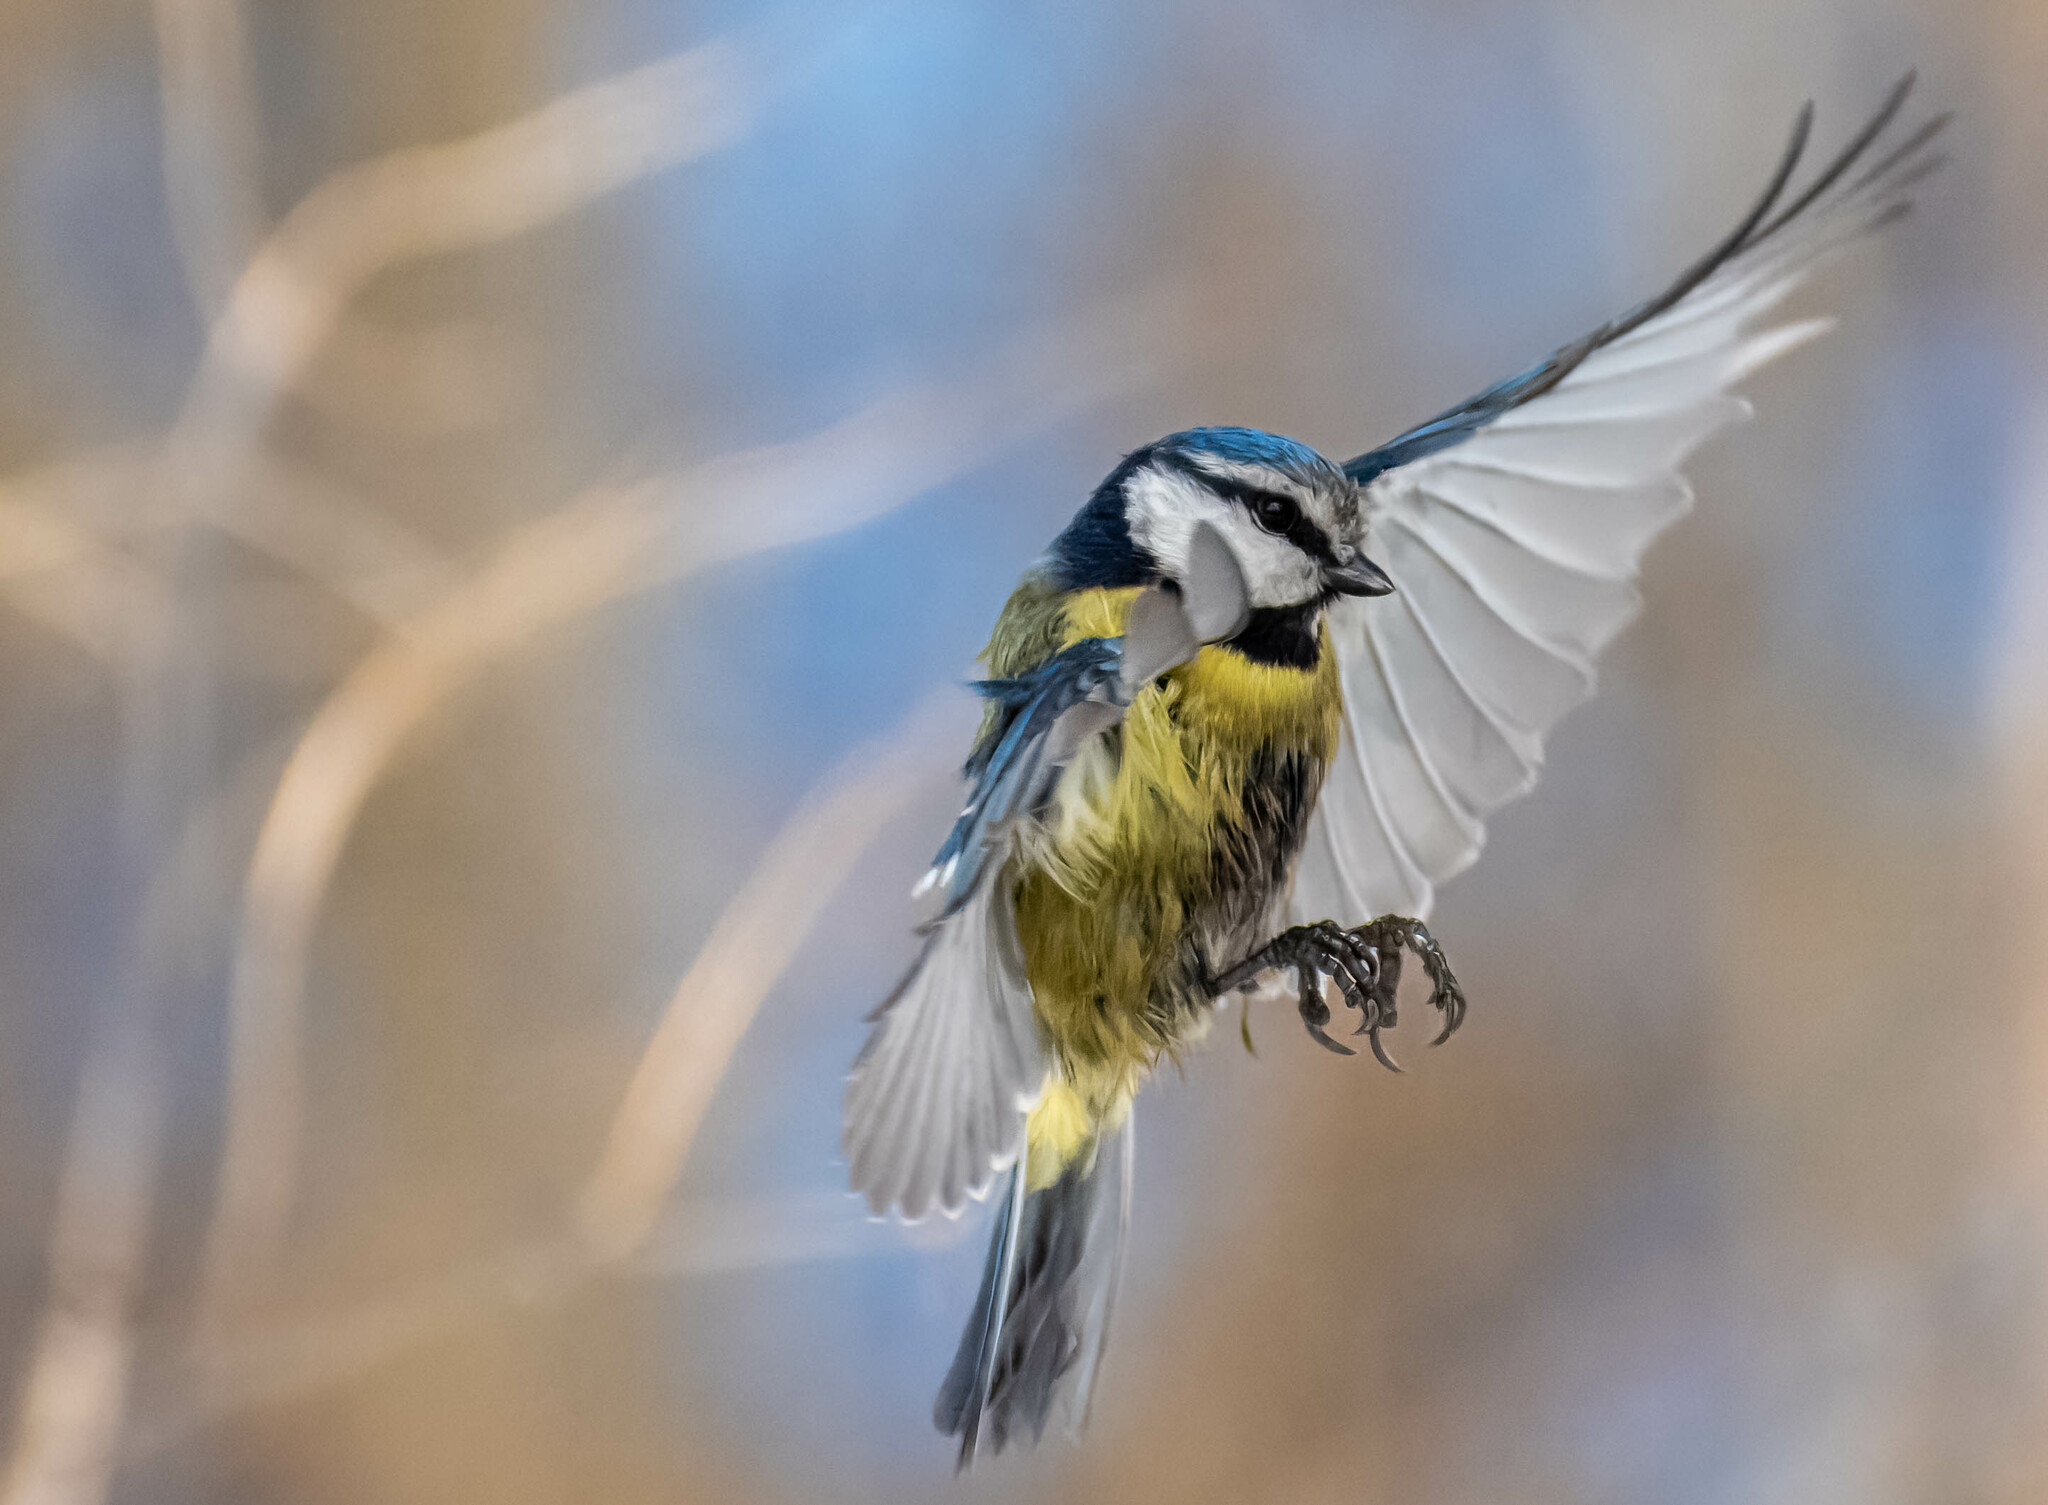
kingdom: Animalia
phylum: Chordata
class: Aves
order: Passeriformes
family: Paridae
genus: Cyanistes
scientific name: Cyanistes caeruleus
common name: Eurasian blue tit
